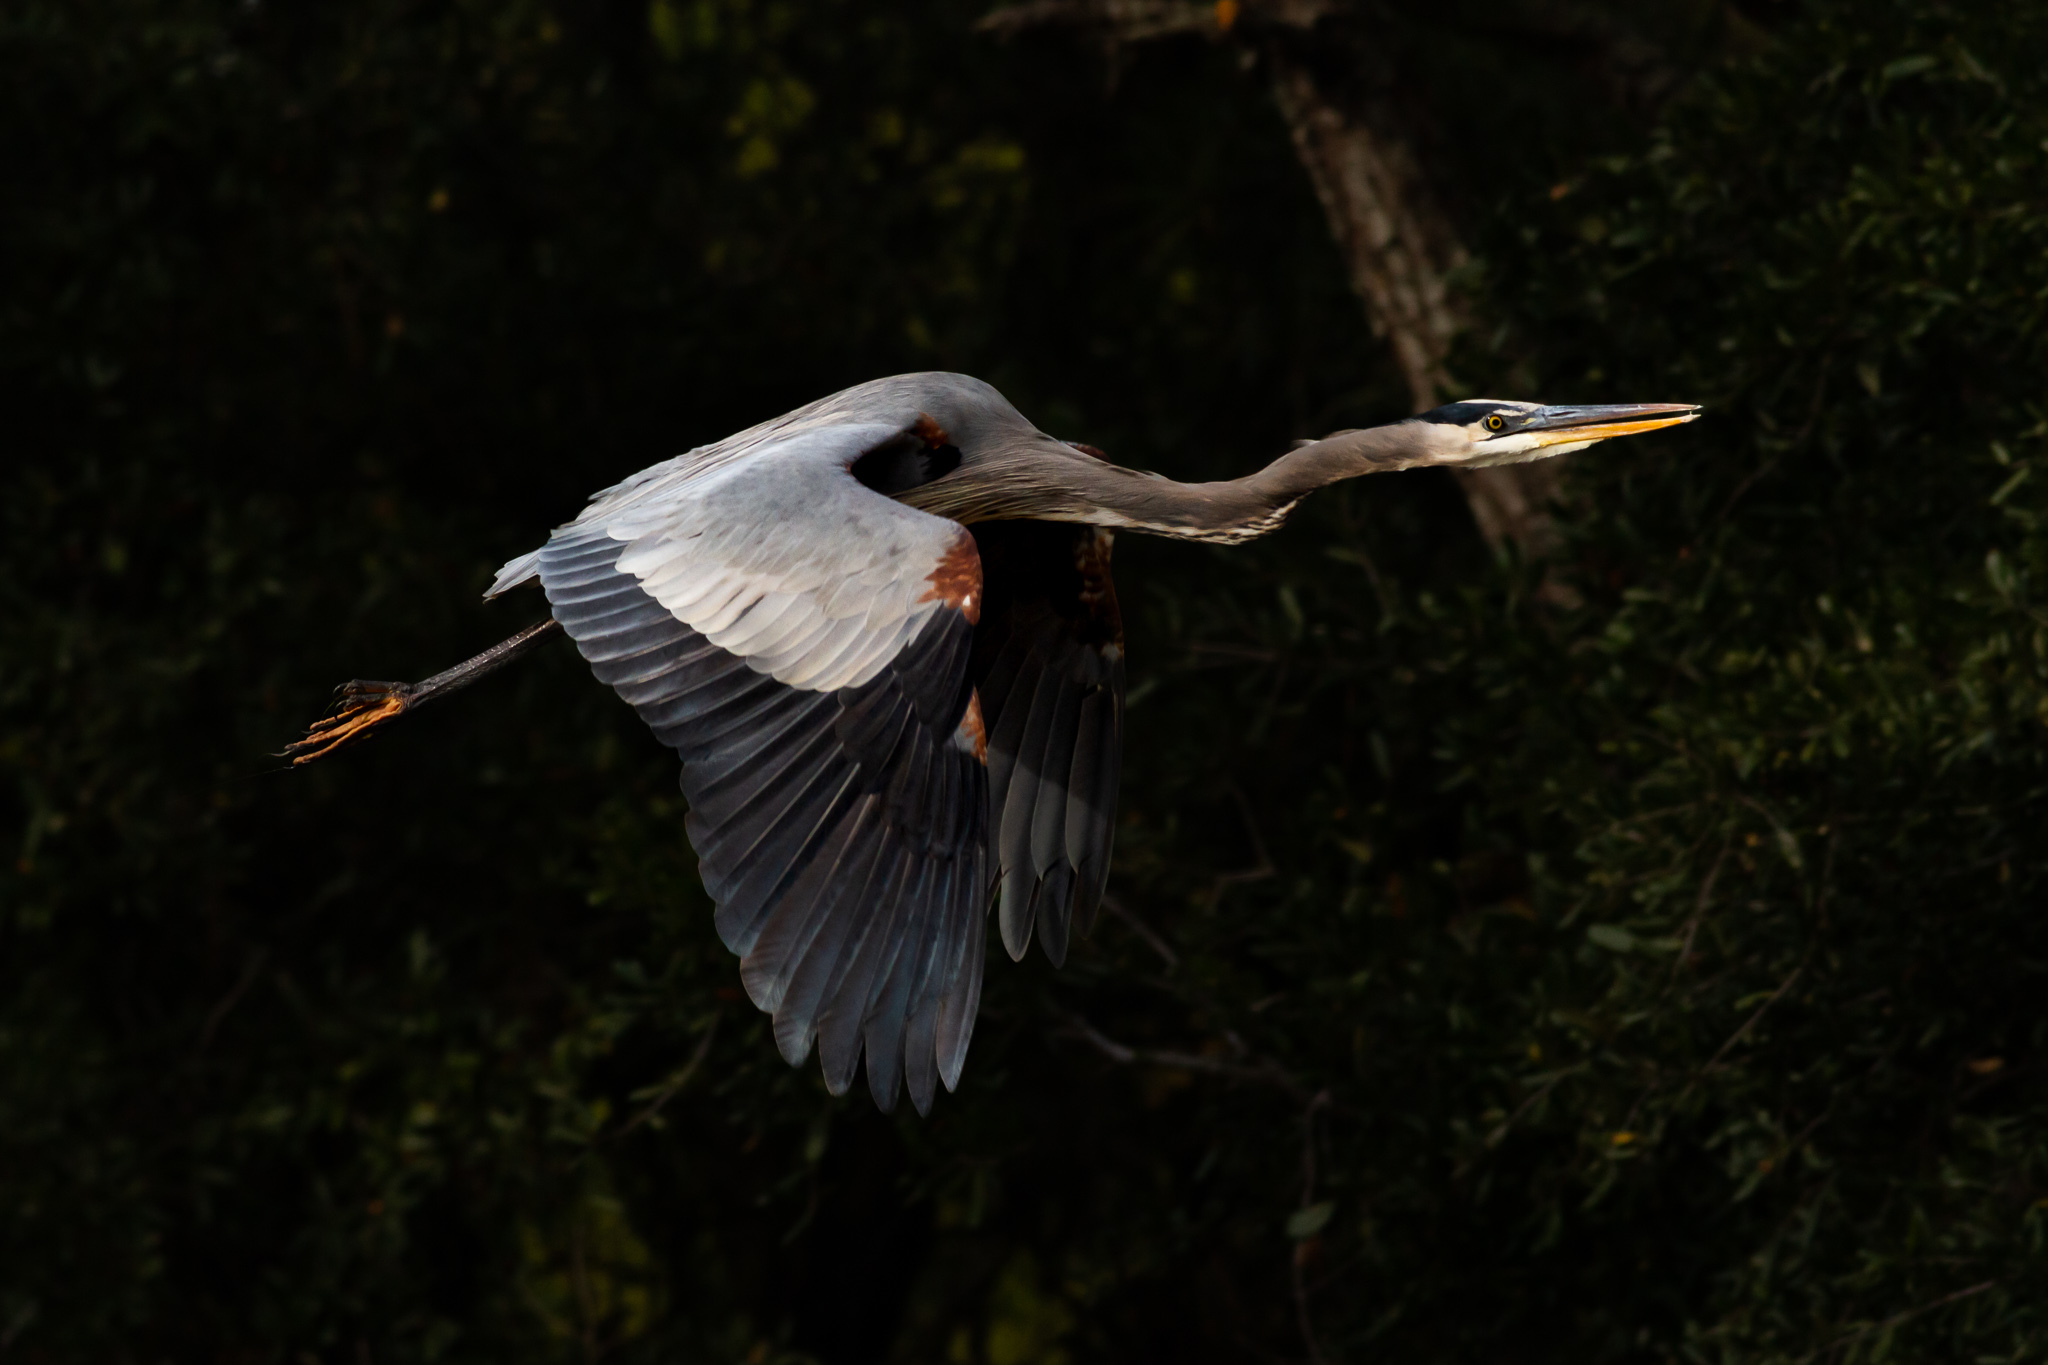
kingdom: Animalia
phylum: Chordata
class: Aves
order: Pelecaniformes
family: Ardeidae
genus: Ardea
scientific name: Ardea herodias
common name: Great blue heron
